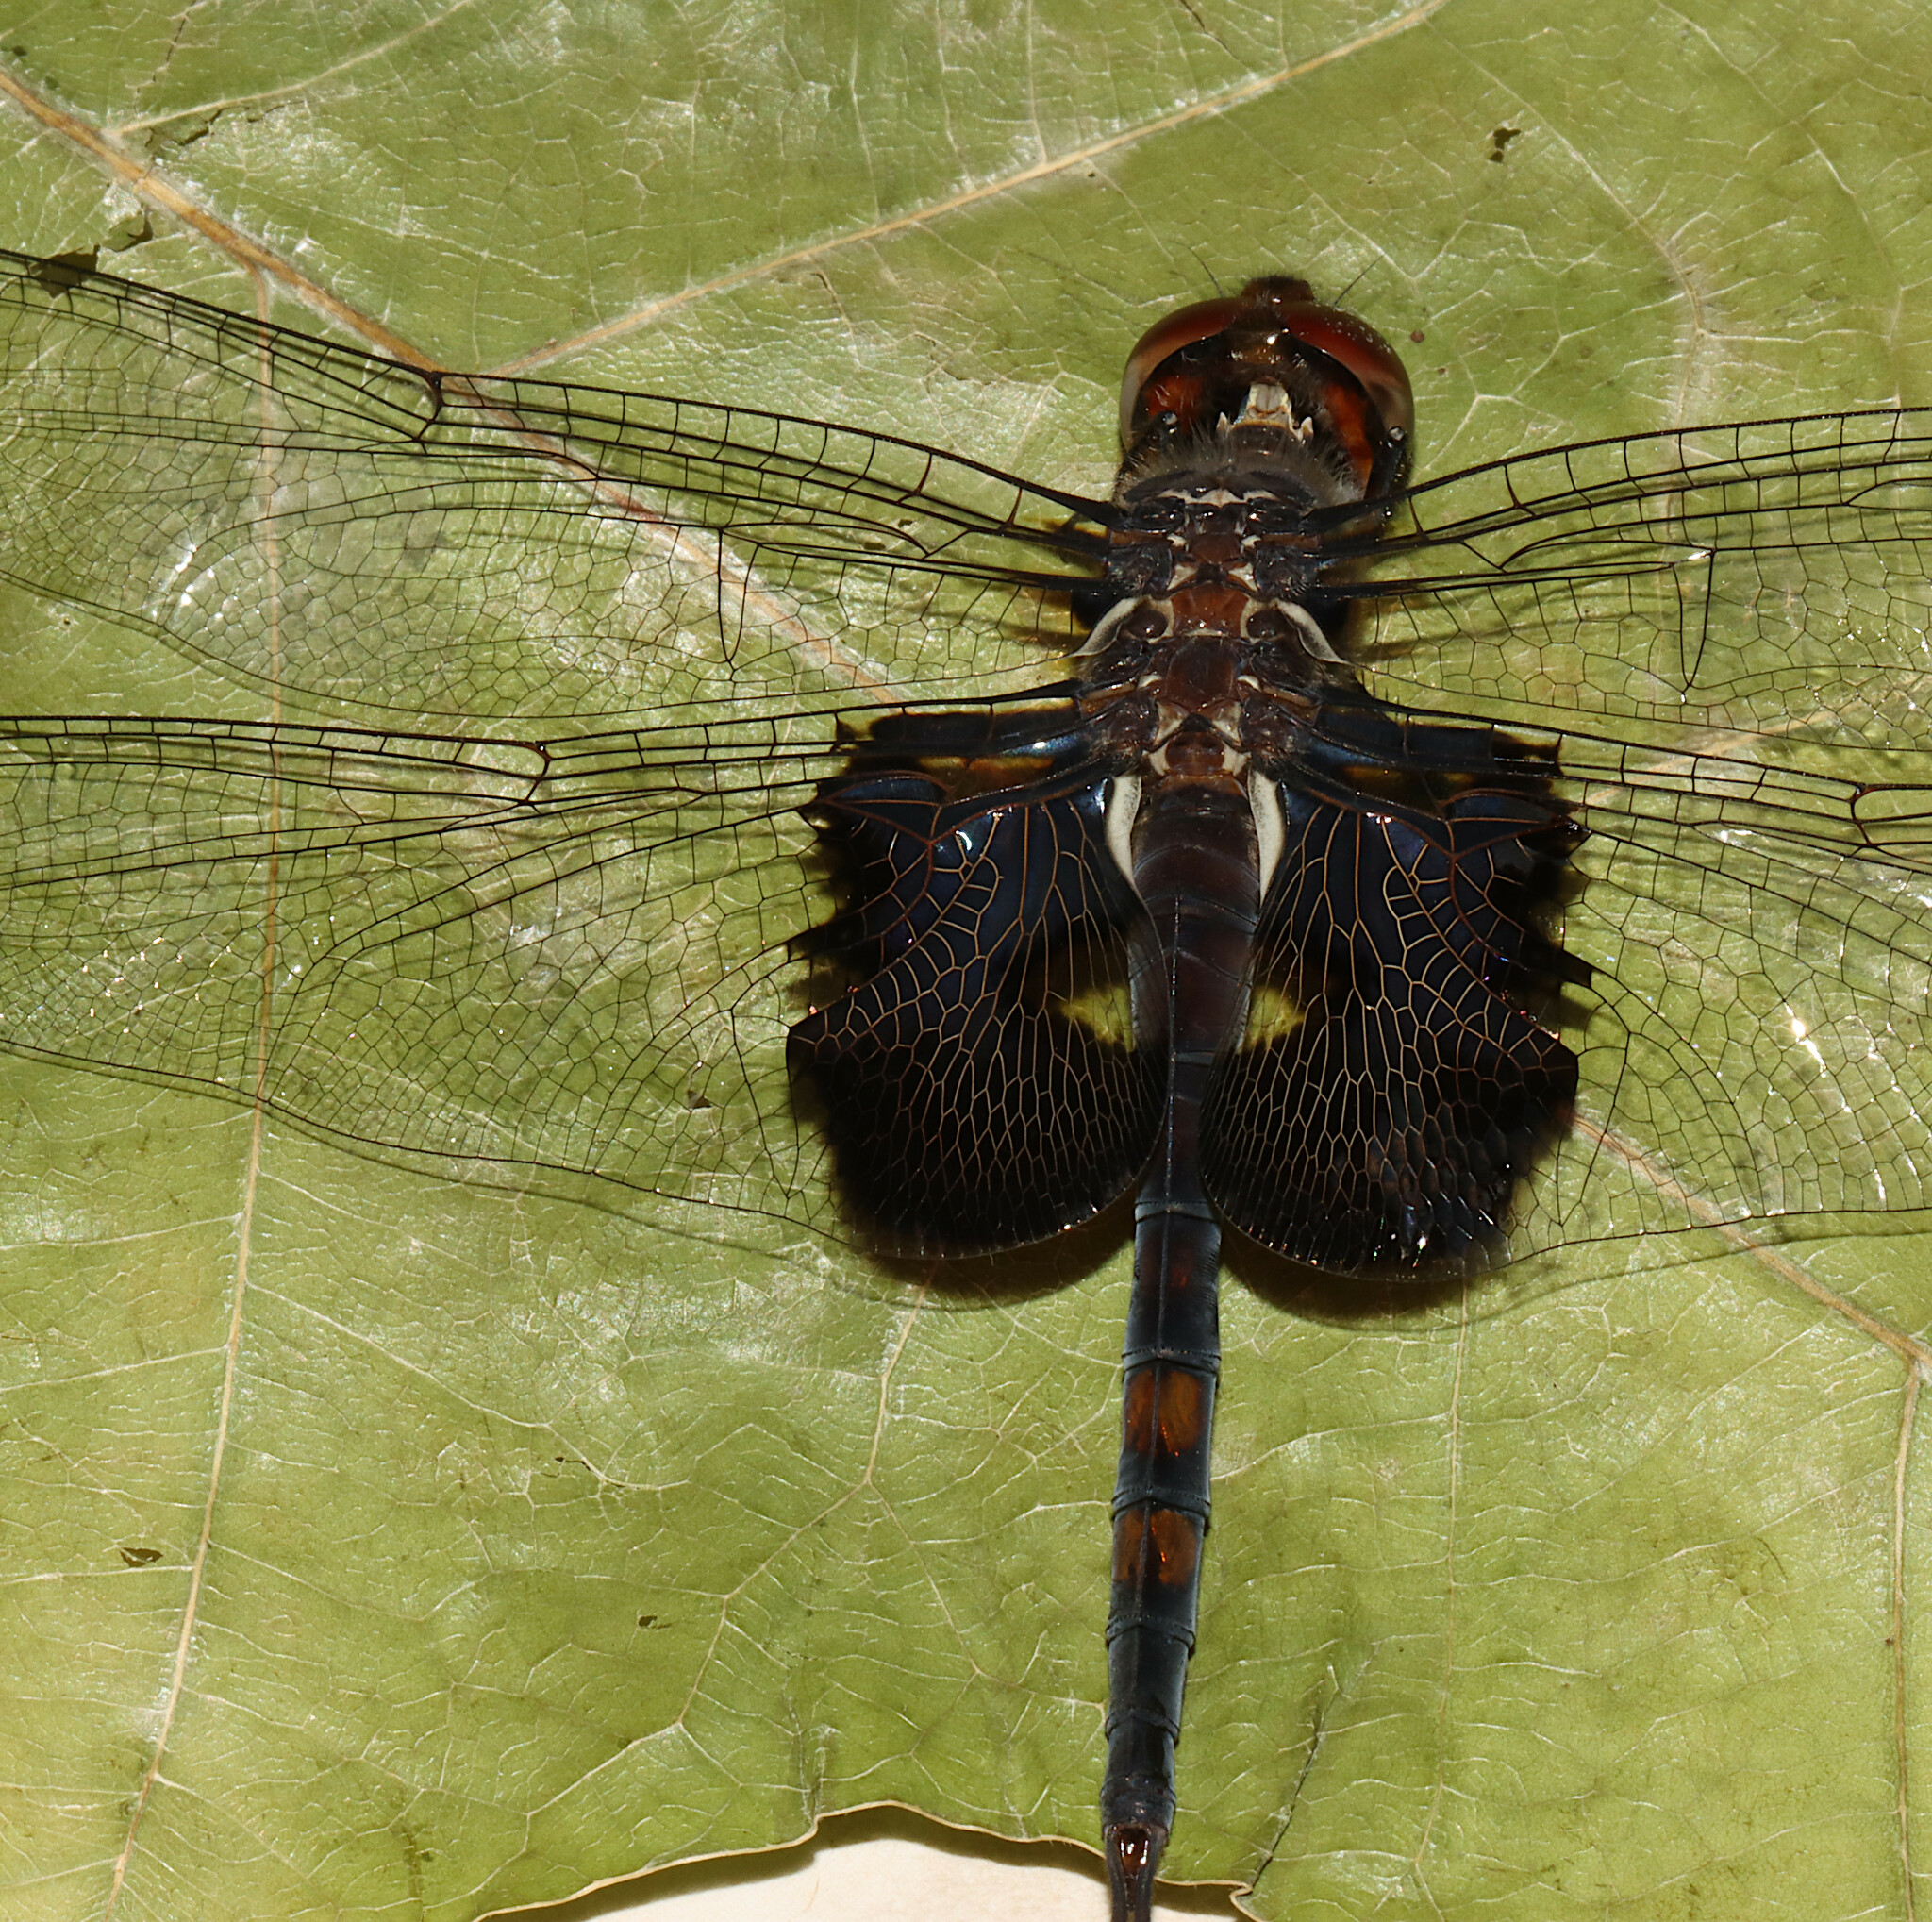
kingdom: Animalia
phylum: Arthropoda
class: Insecta
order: Odonata
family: Libellulidae
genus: Tramea
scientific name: Tramea lacerata
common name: Black saddlebags
